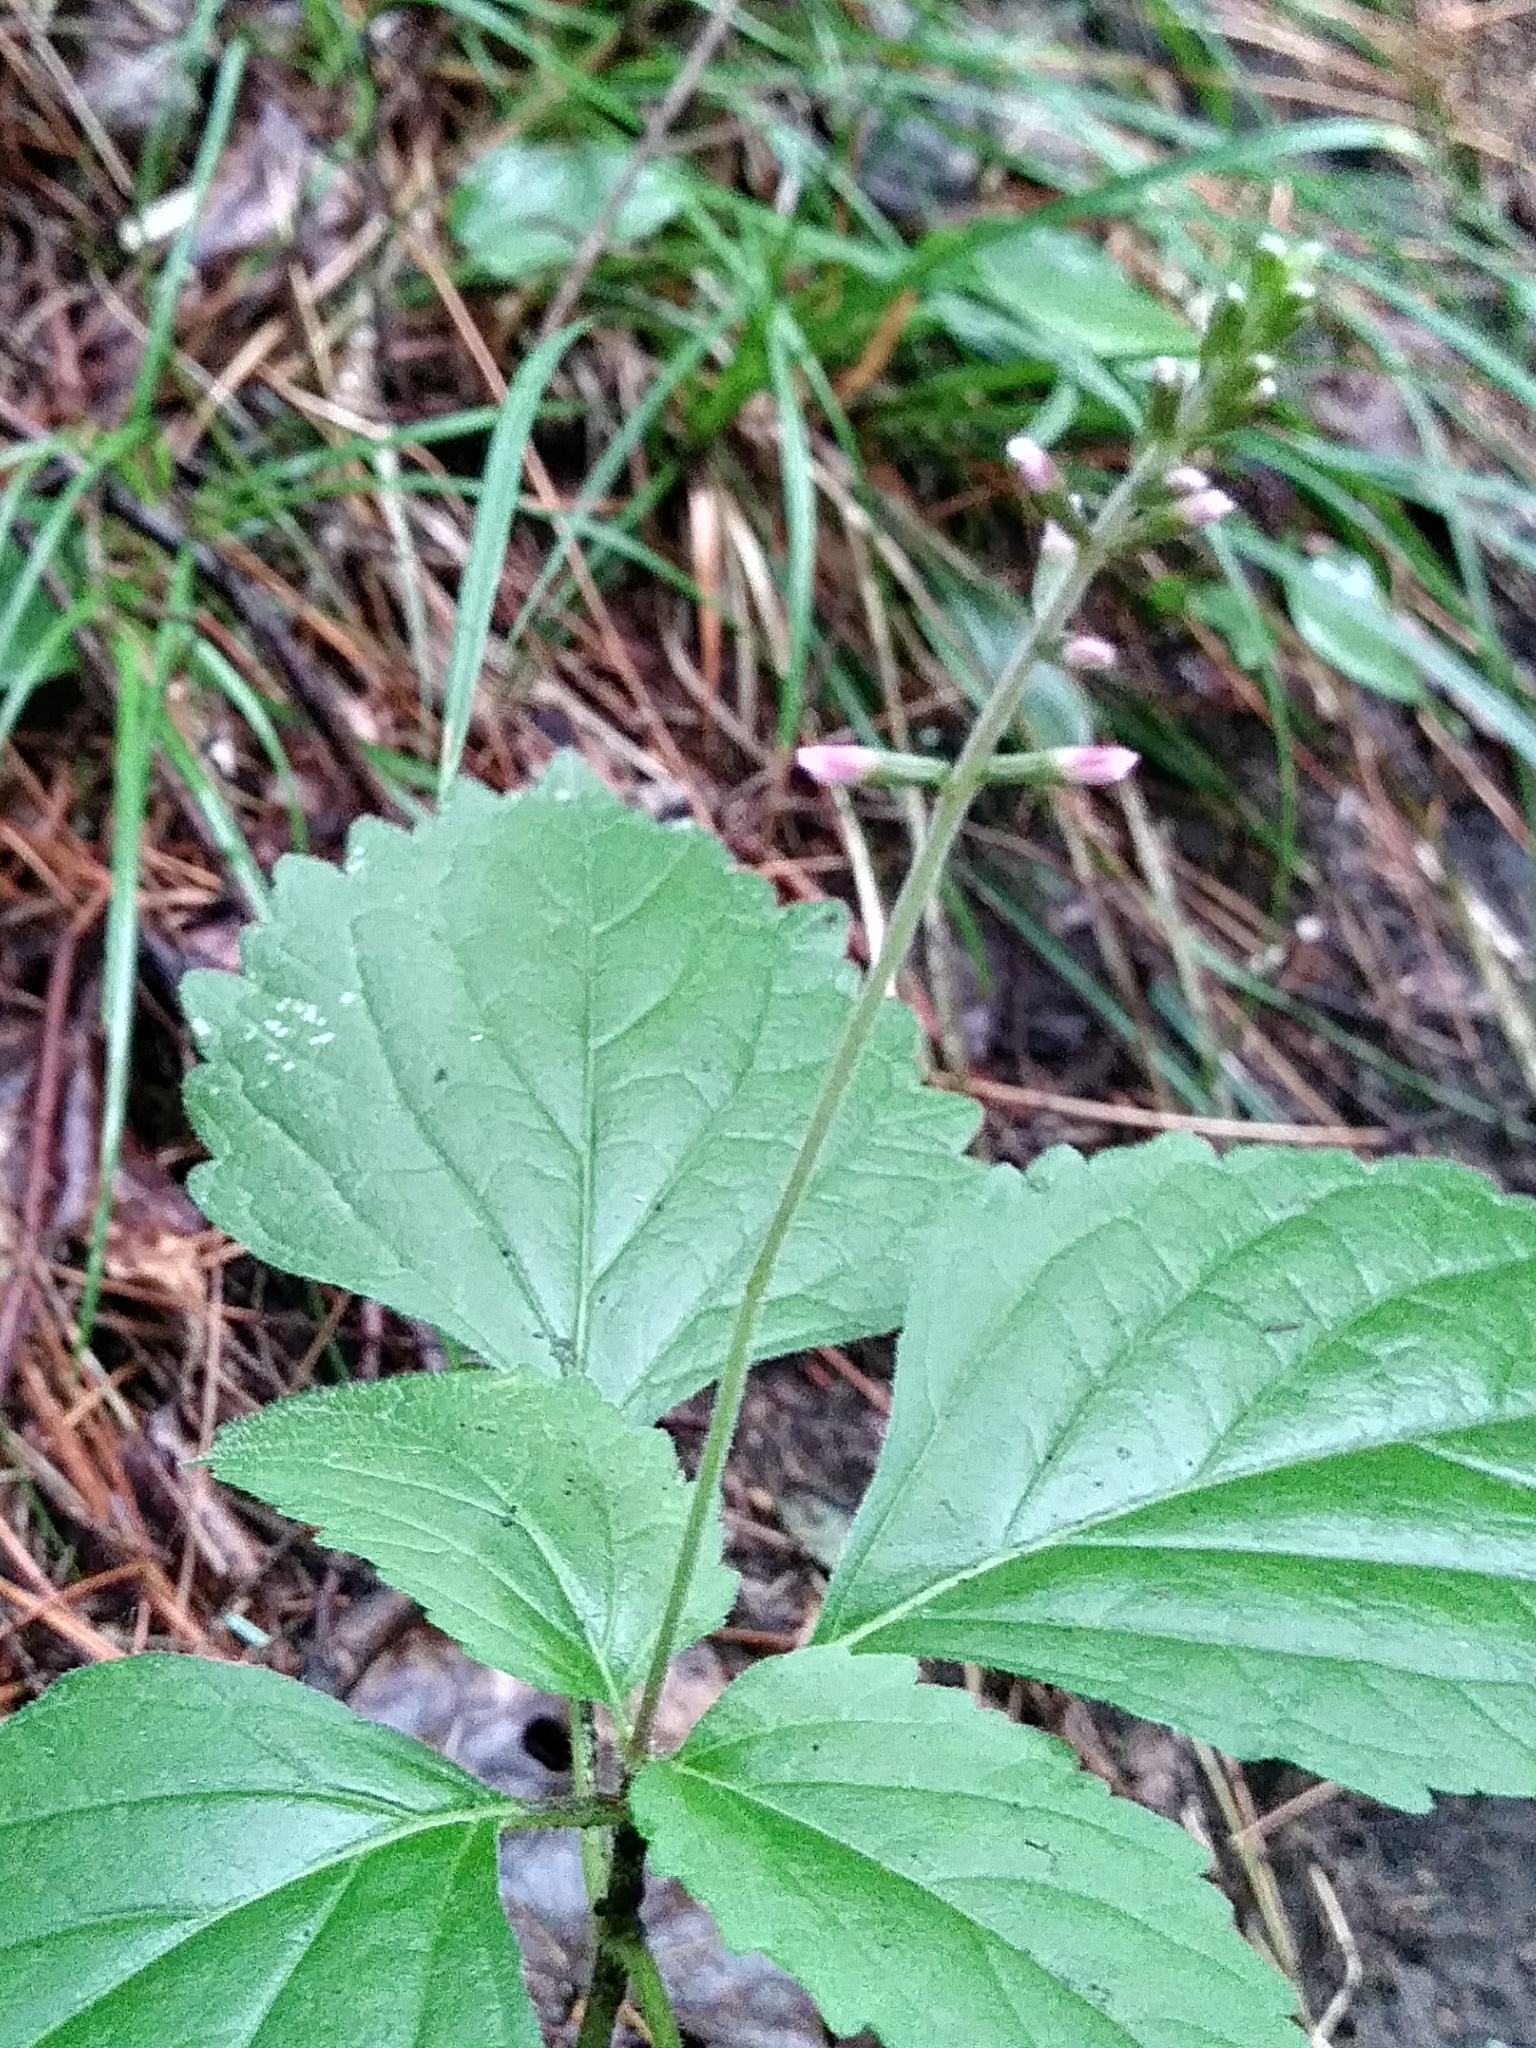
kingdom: Plantae
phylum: Tracheophyta
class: Magnoliopsida
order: Lamiales
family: Phrymaceae
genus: Phryma
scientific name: Phryma leptostachya
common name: American lopseed
